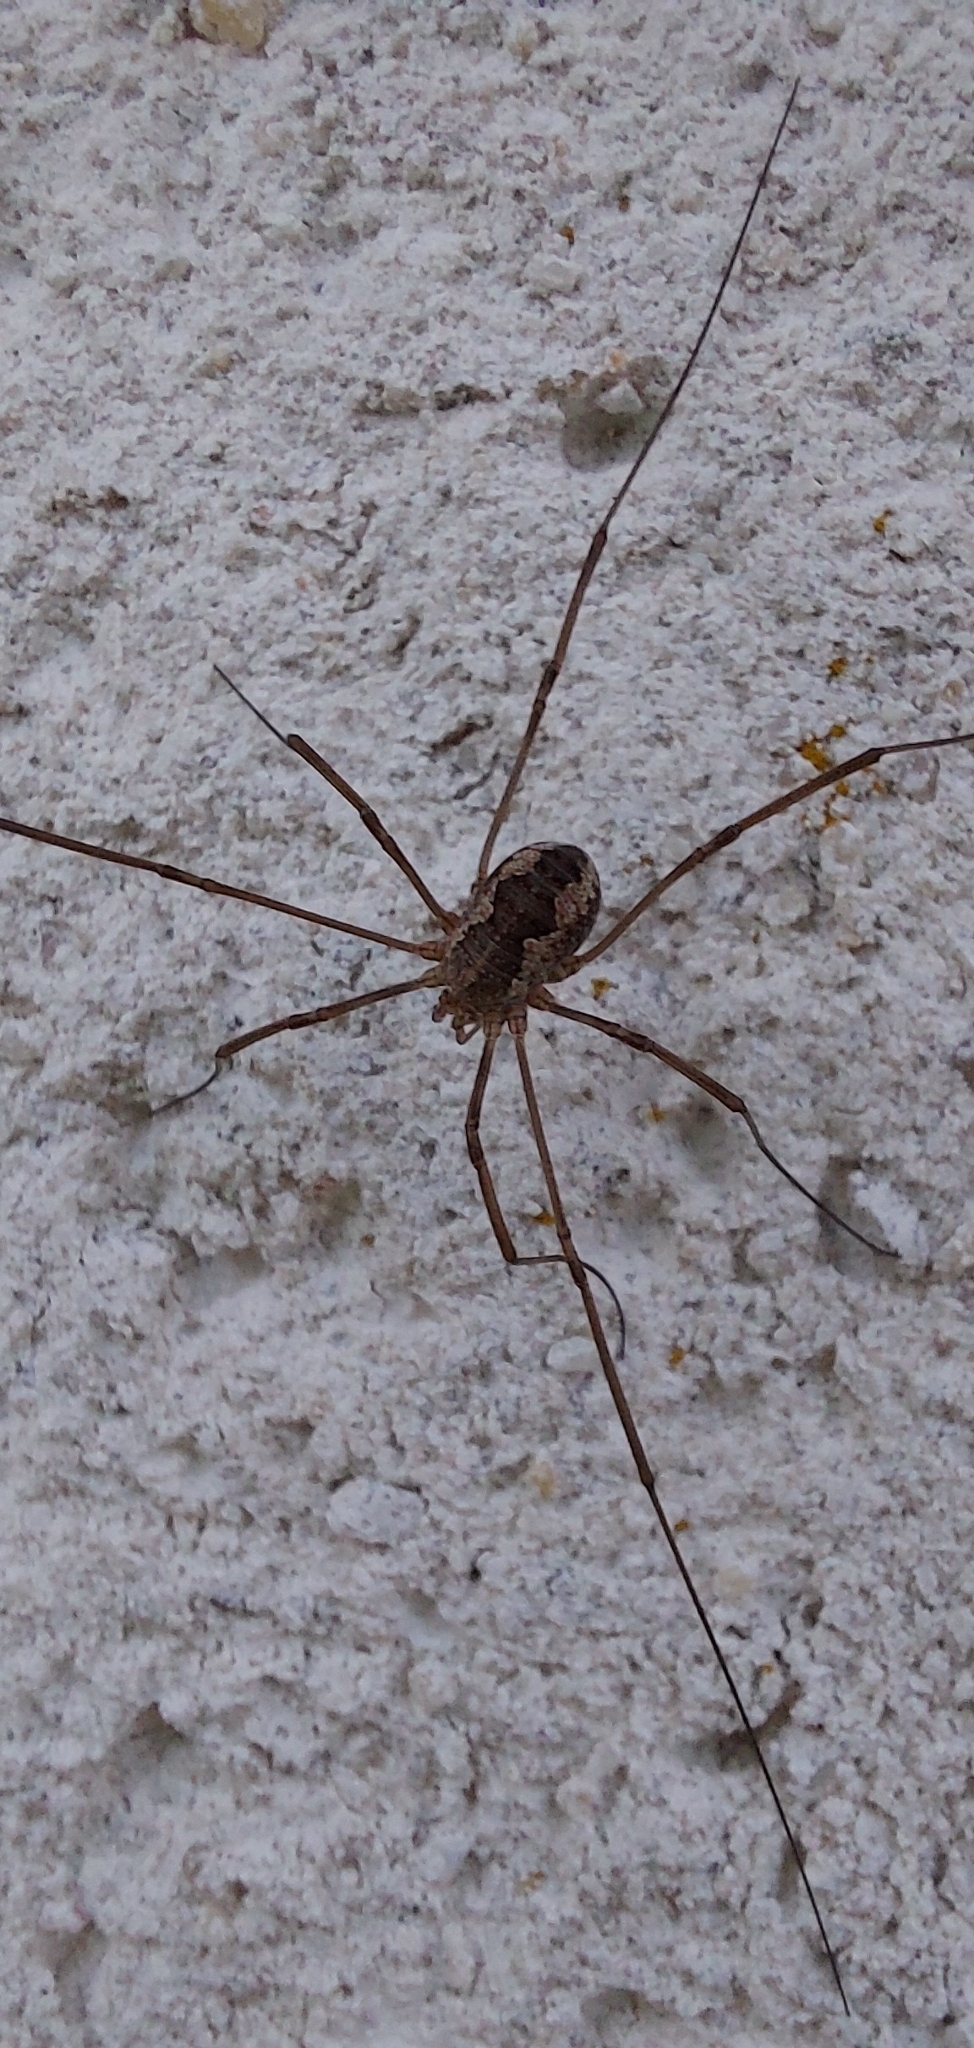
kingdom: Animalia
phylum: Arthropoda
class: Arachnida
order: Opiliones
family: Phalangiidae
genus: Phalangium
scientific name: Phalangium opilio
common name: Daddy longleg
